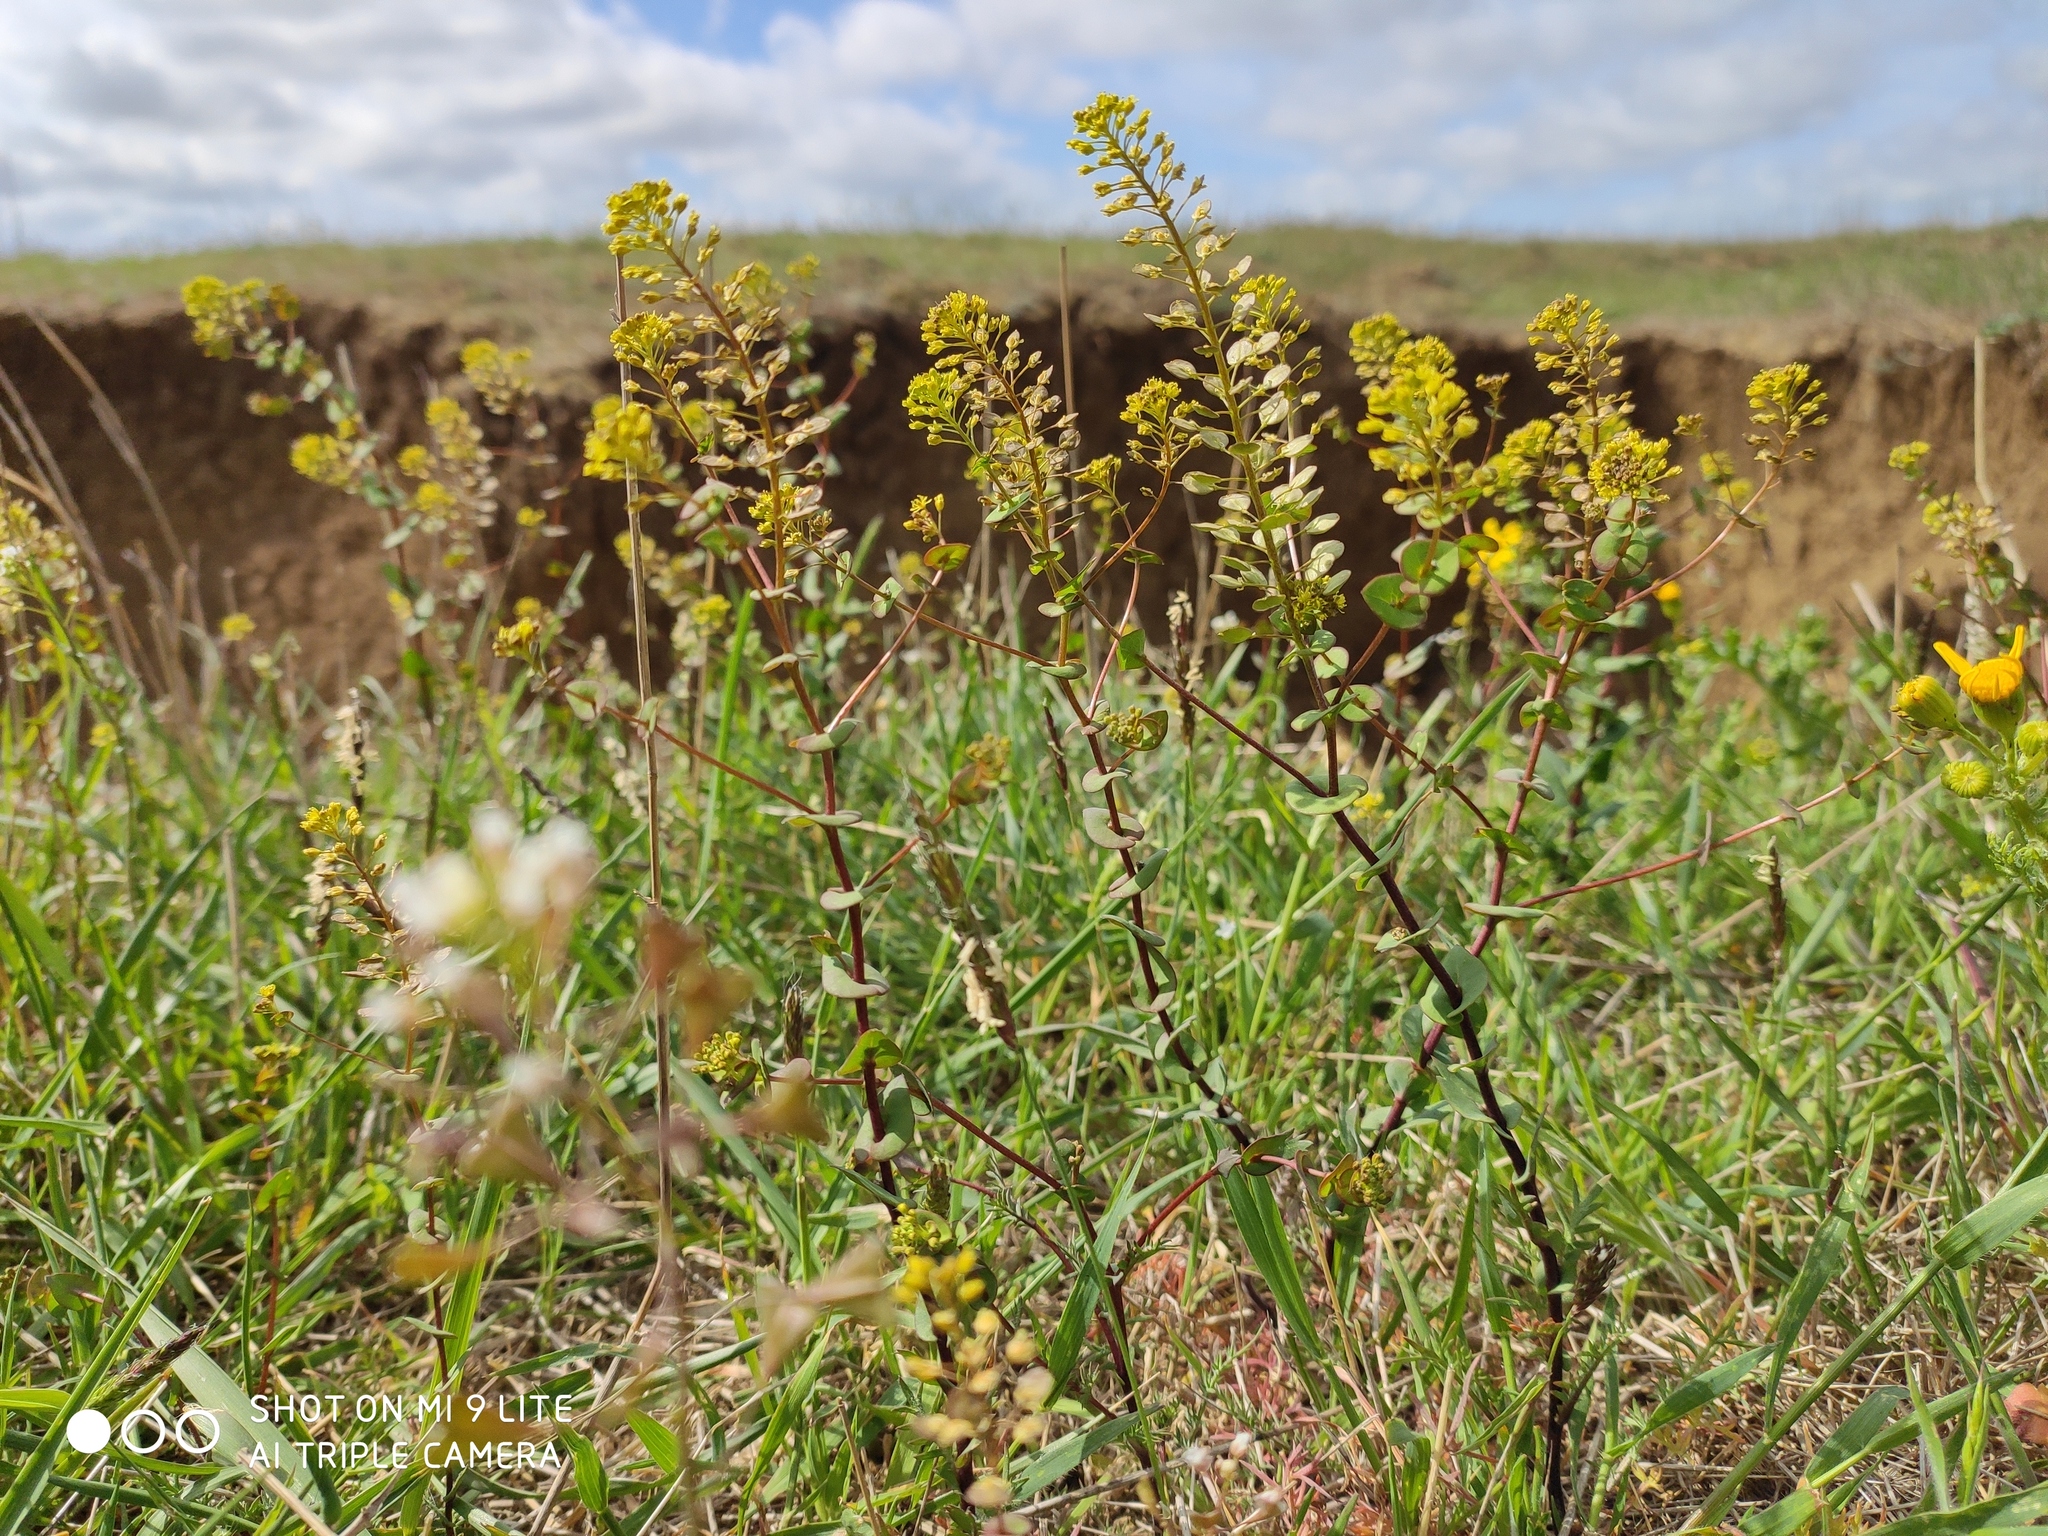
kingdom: Plantae
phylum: Tracheophyta
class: Magnoliopsida
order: Brassicales
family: Brassicaceae
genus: Lepidium
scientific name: Lepidium perfoliatum
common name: Perfoliate pepperwort
